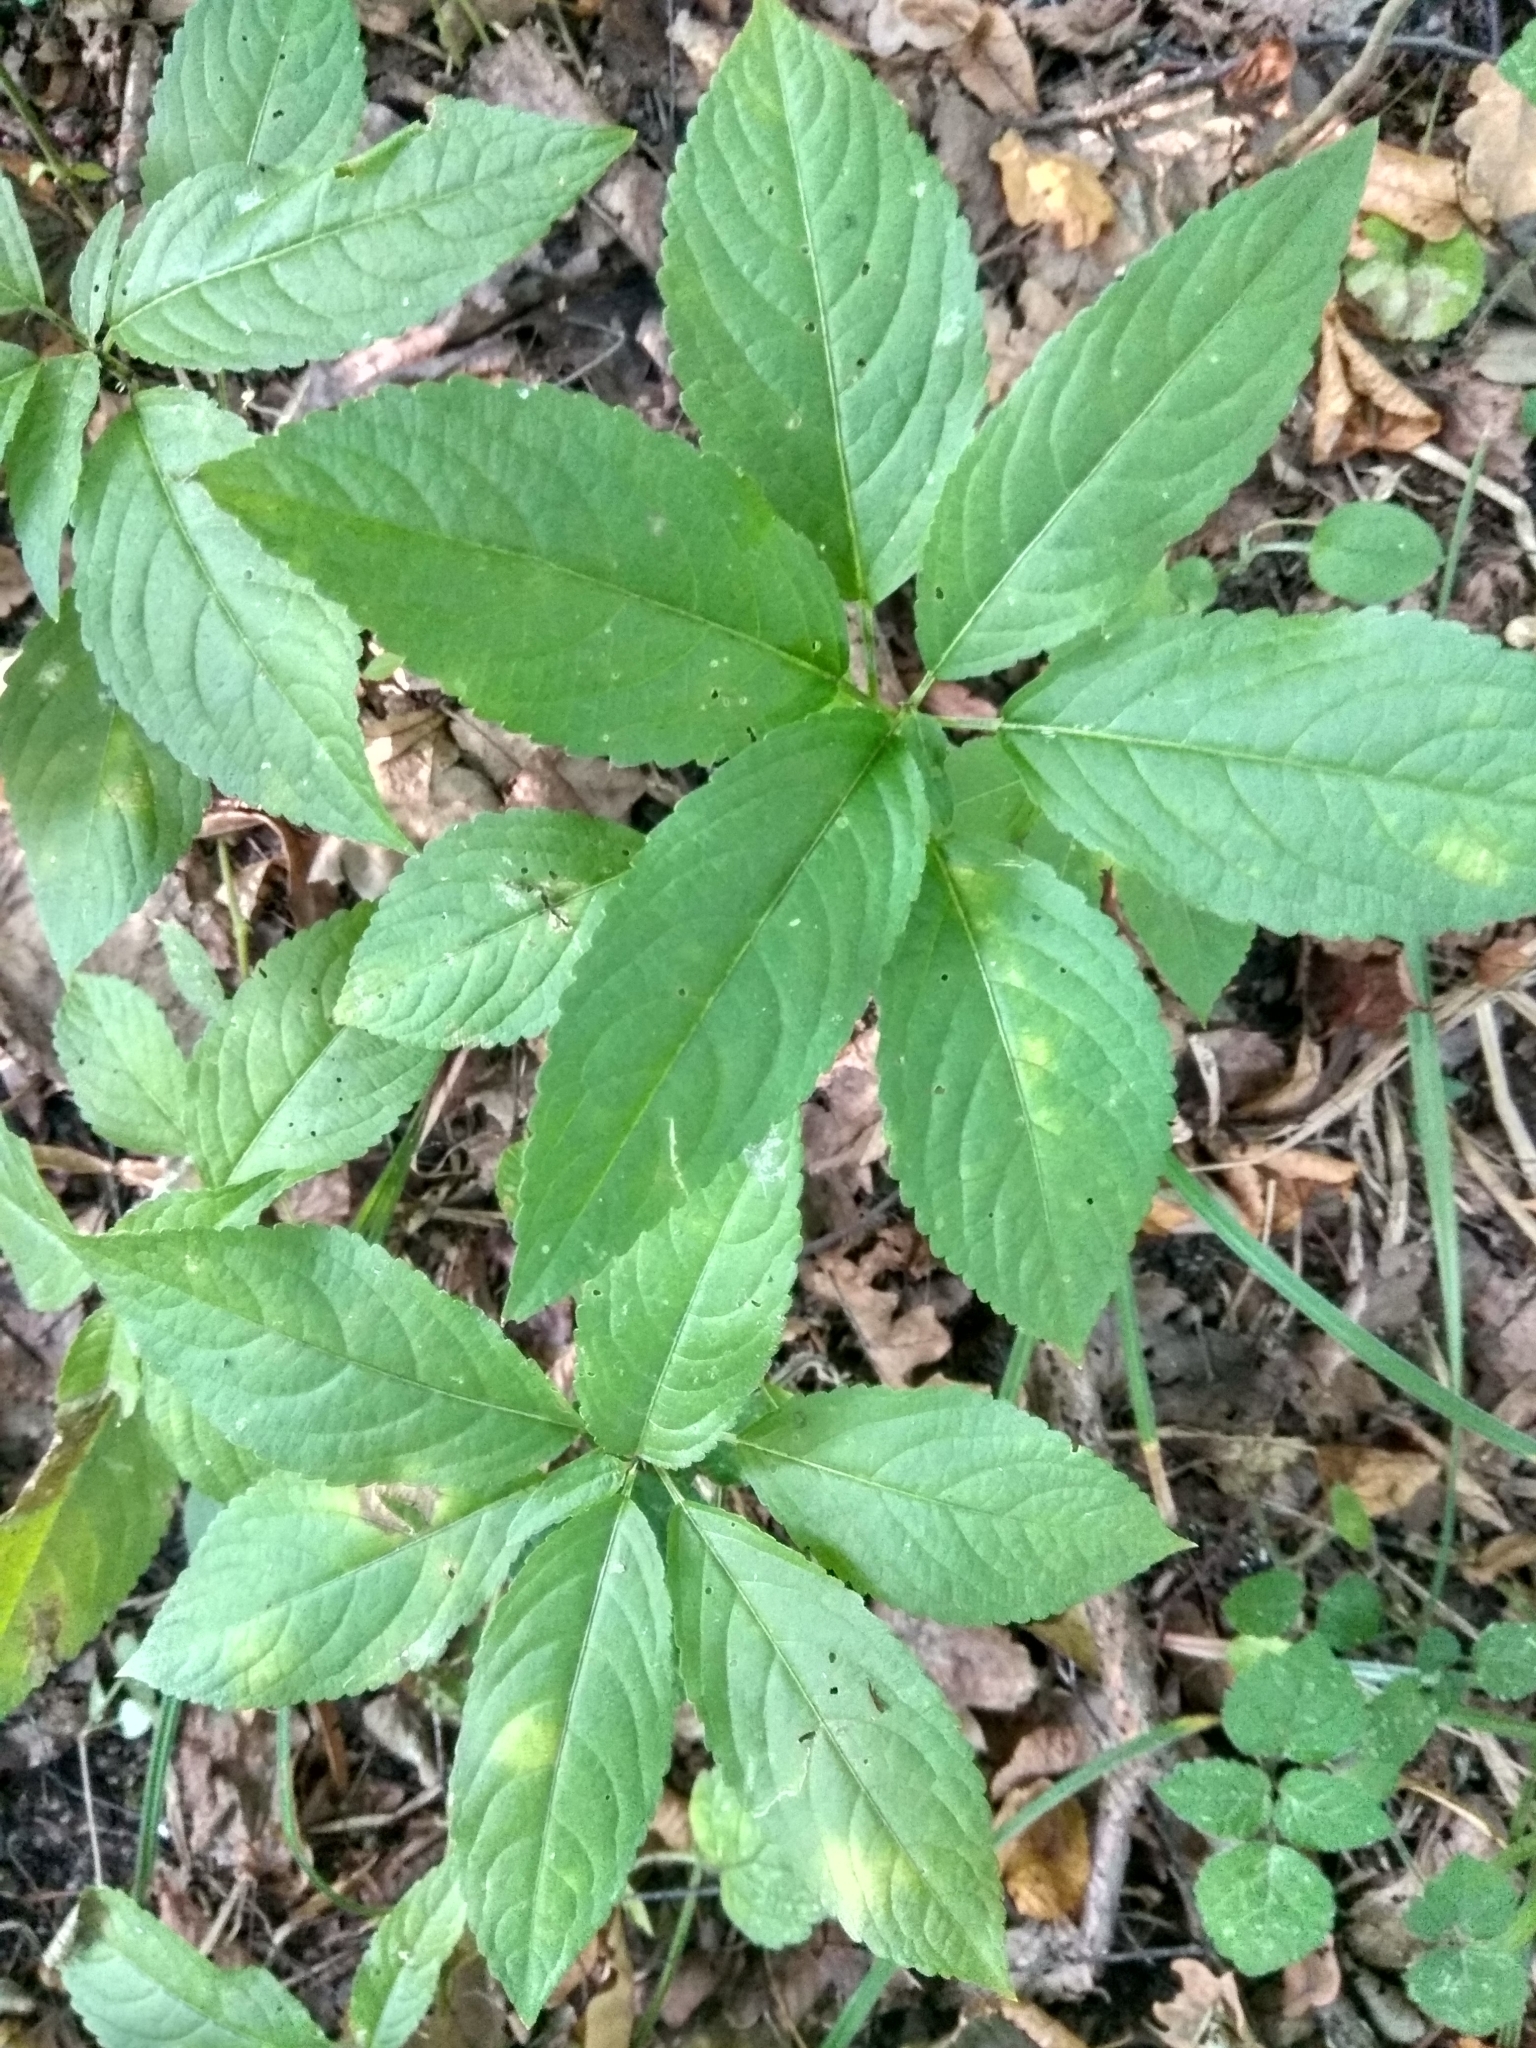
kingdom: Plantae
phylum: Tracheophyta
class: Magnoliopsida
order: Malpighiales
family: Euphorbiaceae
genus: Mercurialis
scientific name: Mercurialis perennis
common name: Dog mercury
